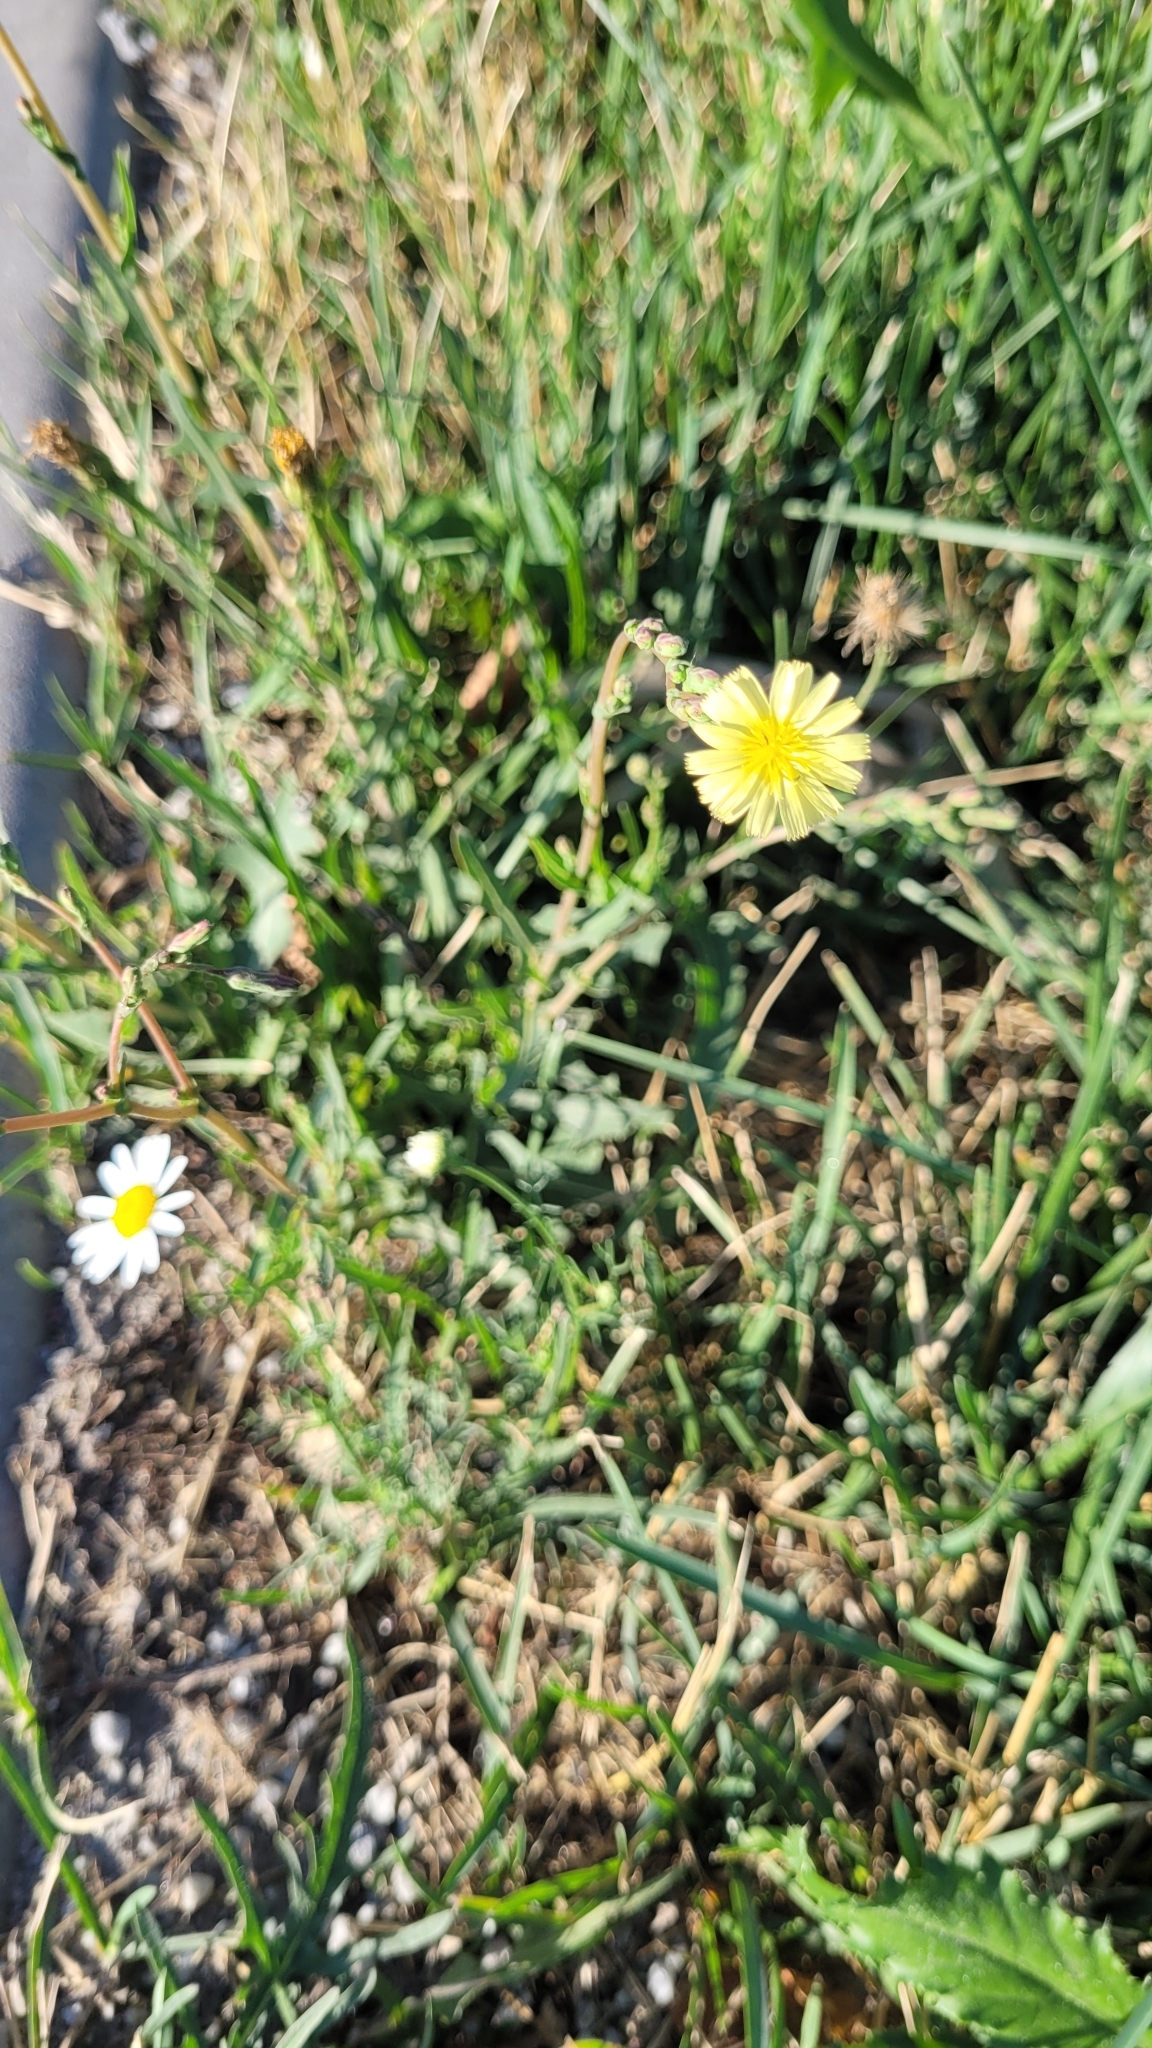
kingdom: Plantae
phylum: Tracheophyta
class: Magnoliopsida
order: Asterales
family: Asteraceae
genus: Lactuca
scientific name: Lactuca serriola
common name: Prickly lettuce
